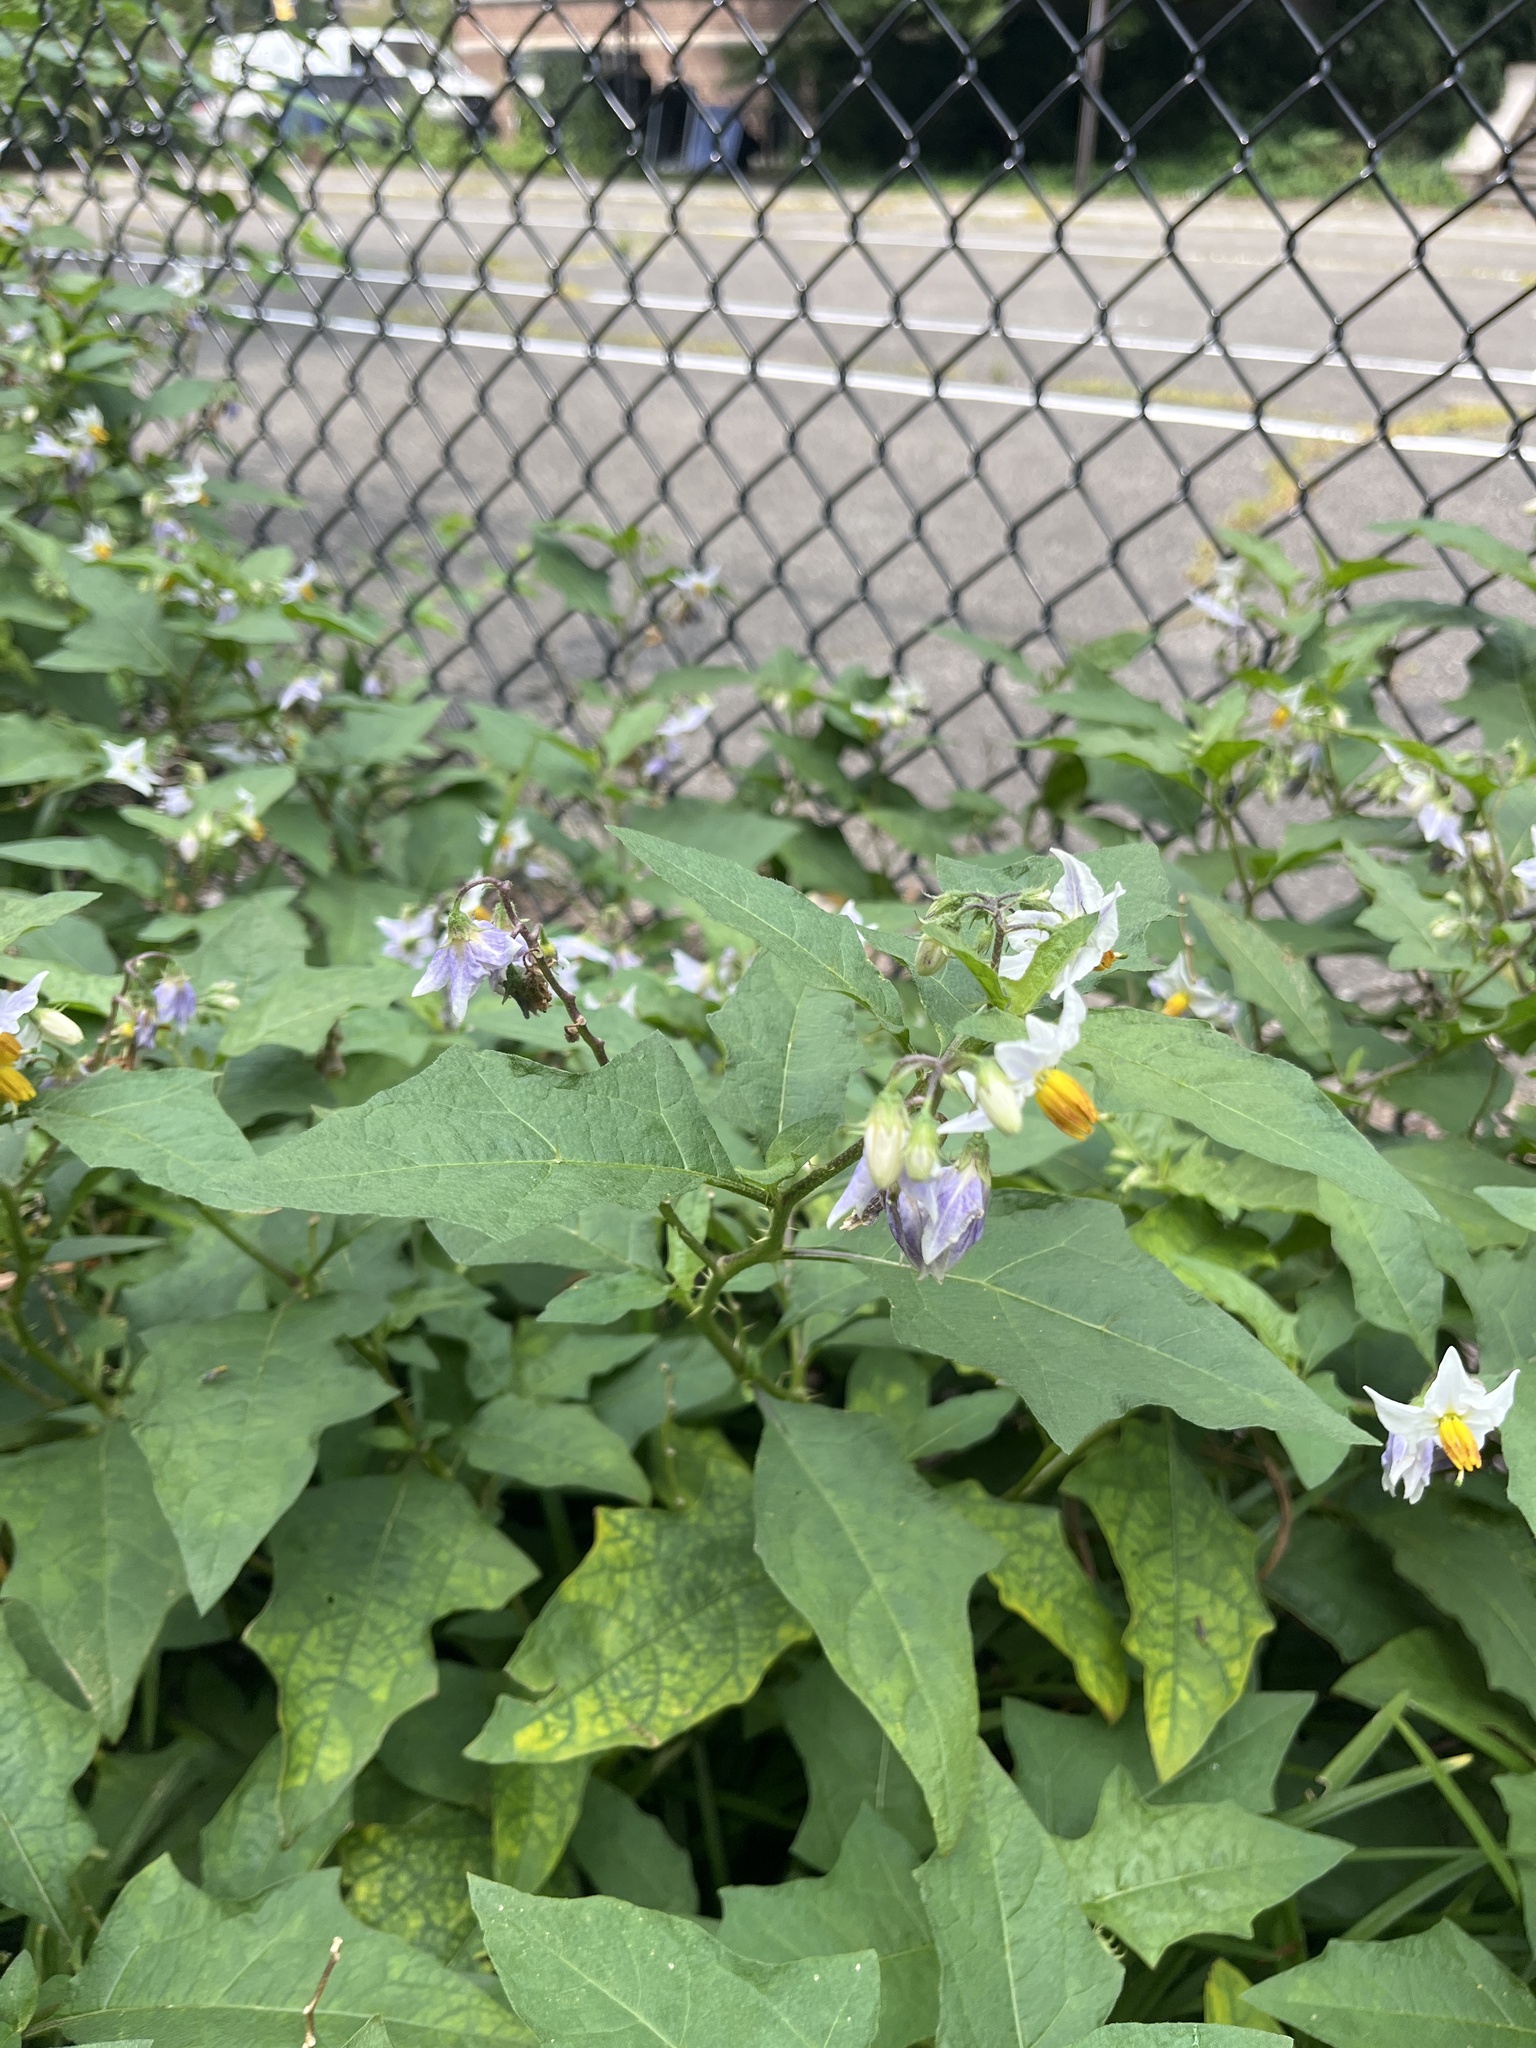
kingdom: Plantae
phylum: Tracheophyta
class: Magnoliopsida
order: Solanales
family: Solanaceae
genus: Solanum
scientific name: Solanum carolinense
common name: Horse-nettle
